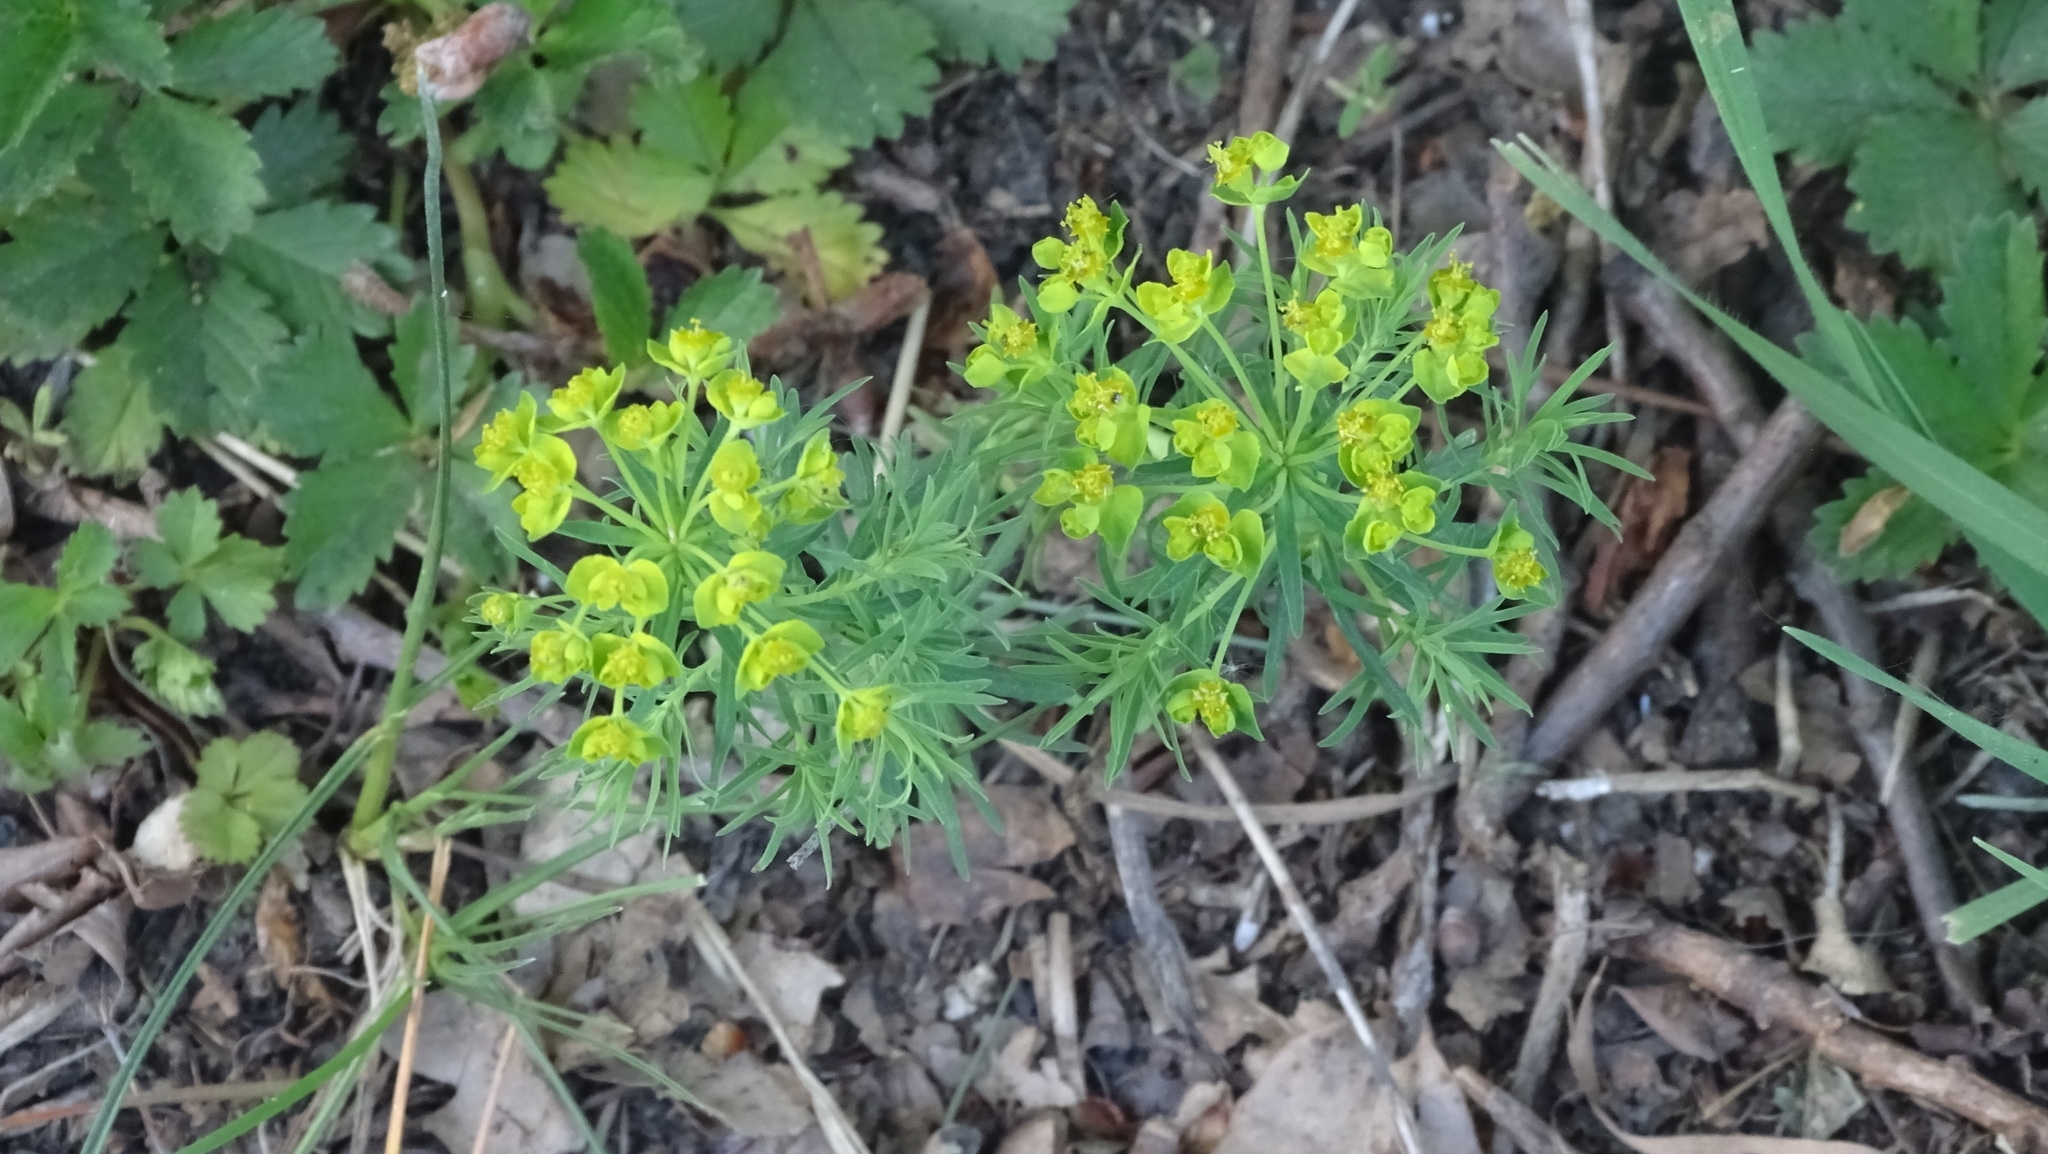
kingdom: Plantae
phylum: Tracheophyta
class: Magnoliopsida
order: Malpighiales
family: Euphorbiaceae
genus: Euphorbia
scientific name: Euphorbia cyparissias
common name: Cypress spurge
